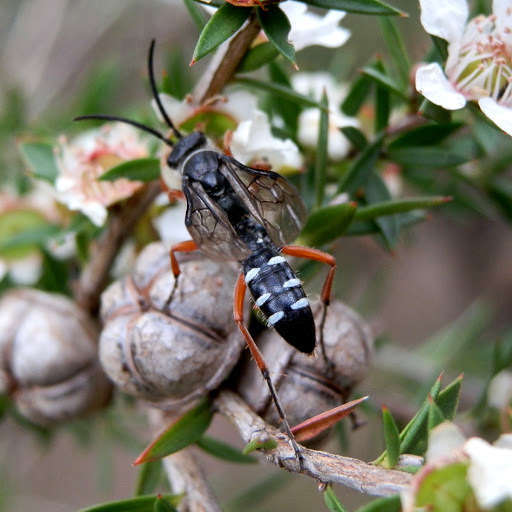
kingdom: Animalia
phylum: Arthropoda
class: Insecta
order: Hymenoptera
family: Tiphiidae
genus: Diamma
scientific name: Diamma
